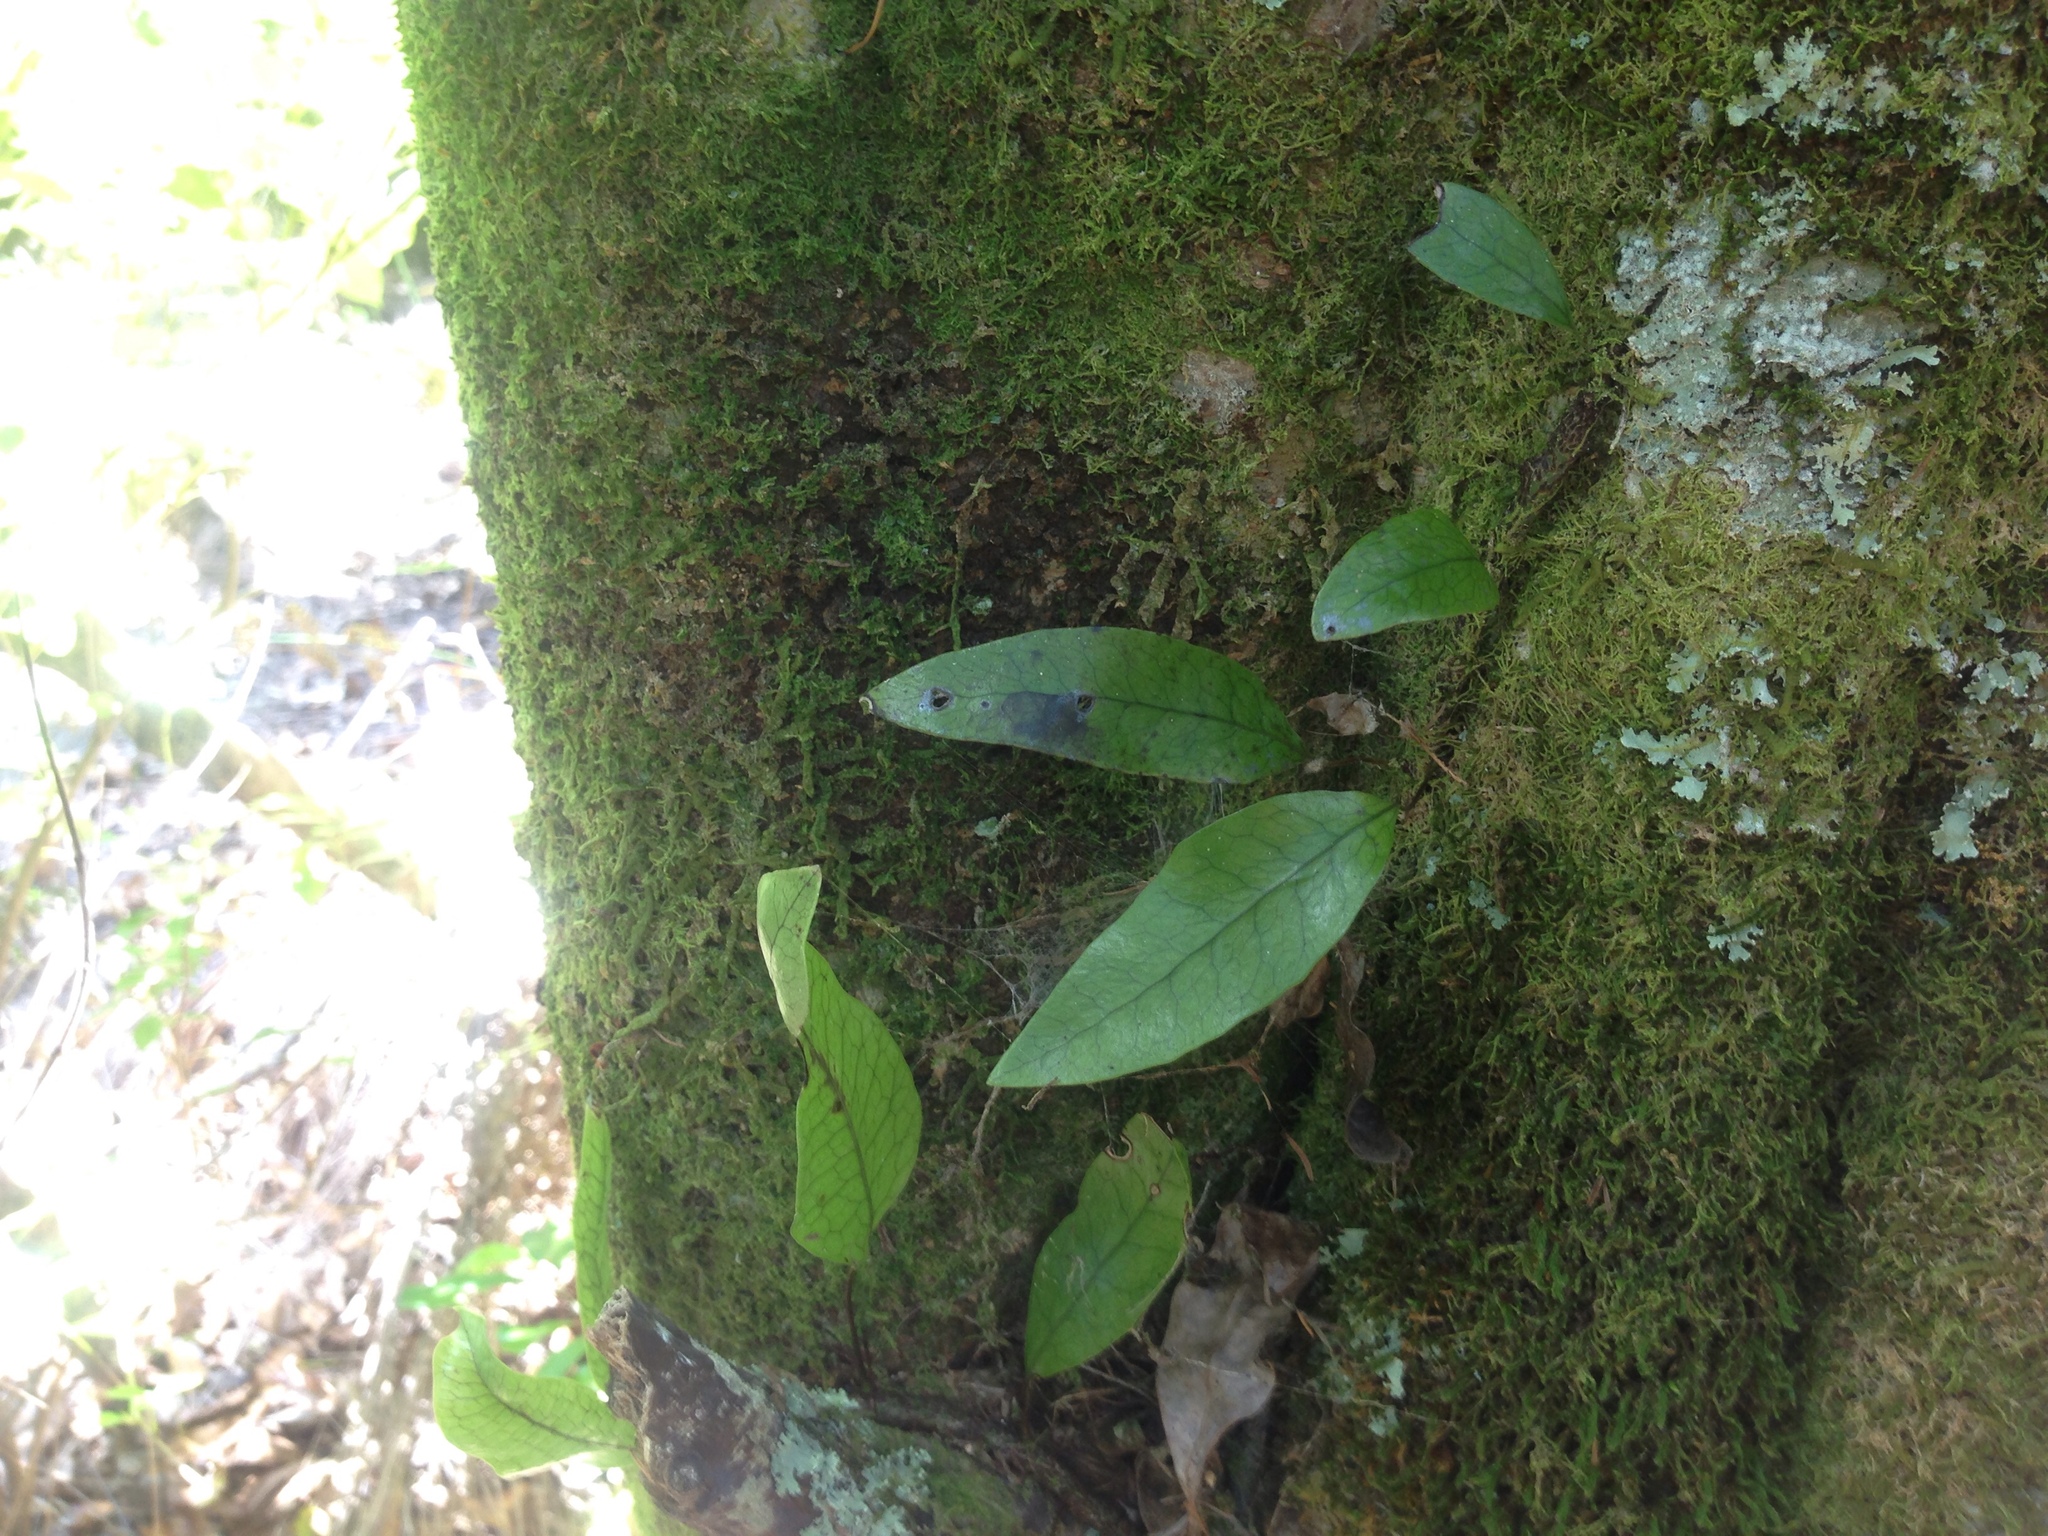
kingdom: Plantae
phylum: Tracheophyta
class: Polypodiopsida
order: Polypodiales
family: Polypodiaceae
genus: Lecanopteris
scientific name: Lecanopteris pustulata
